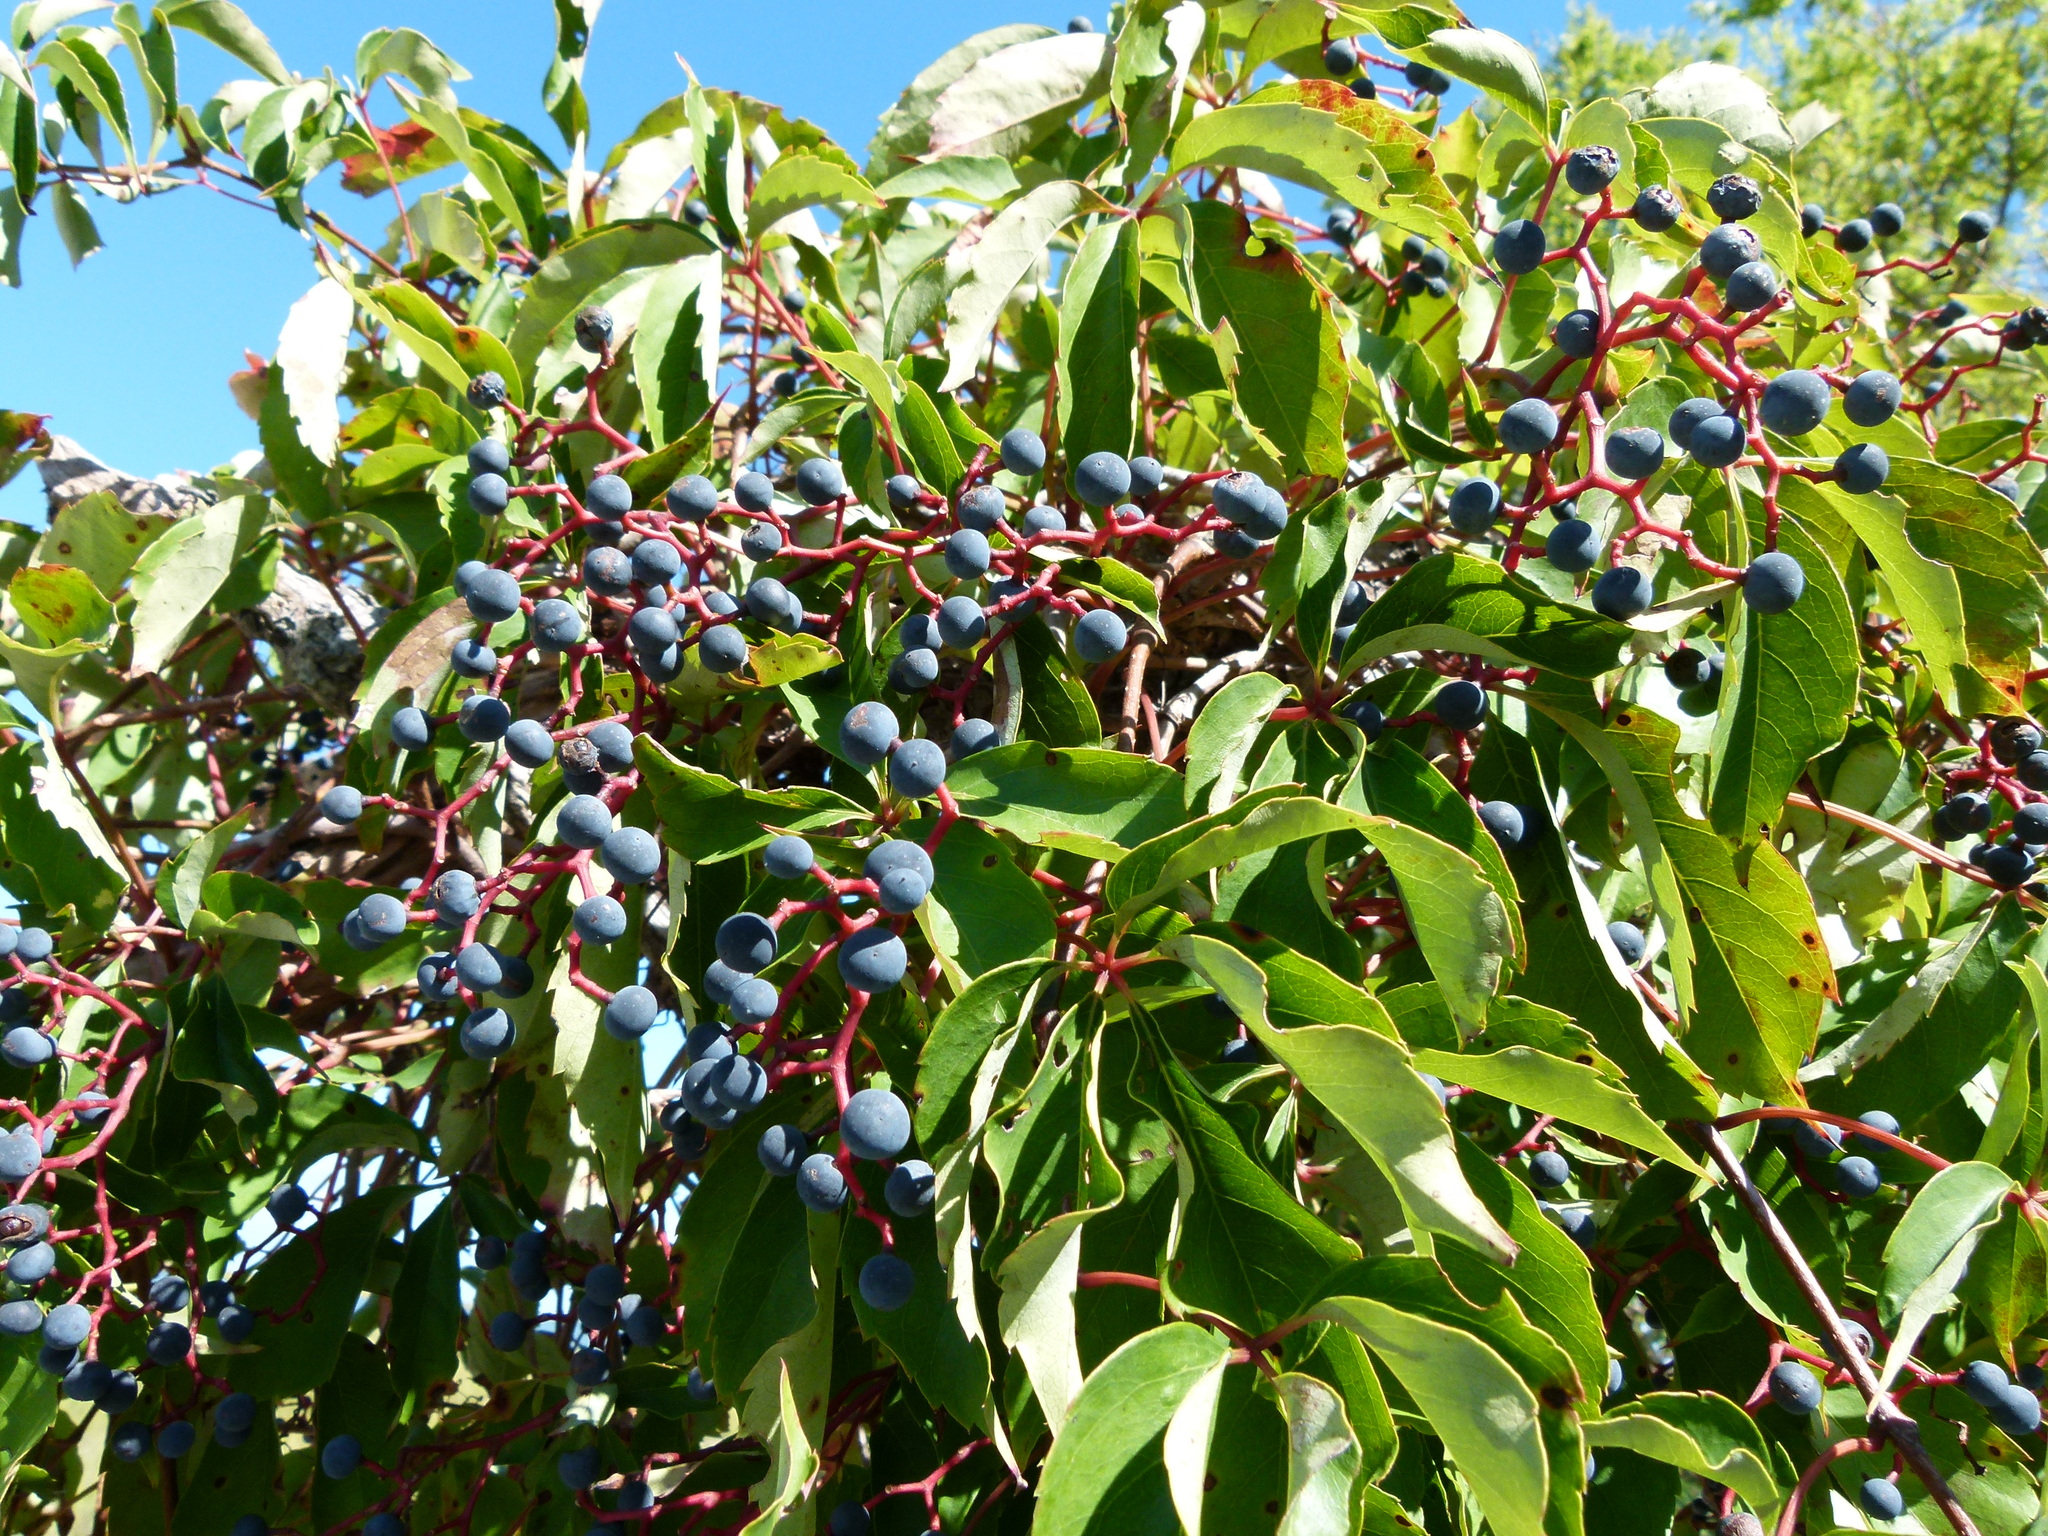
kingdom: Plantae
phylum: Tracheophyta
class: Magnoliopsida
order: Vitales
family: Vitaceae
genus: Parthenocissus
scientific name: Parthenocissus quinquefolia
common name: Virginia-creeper
